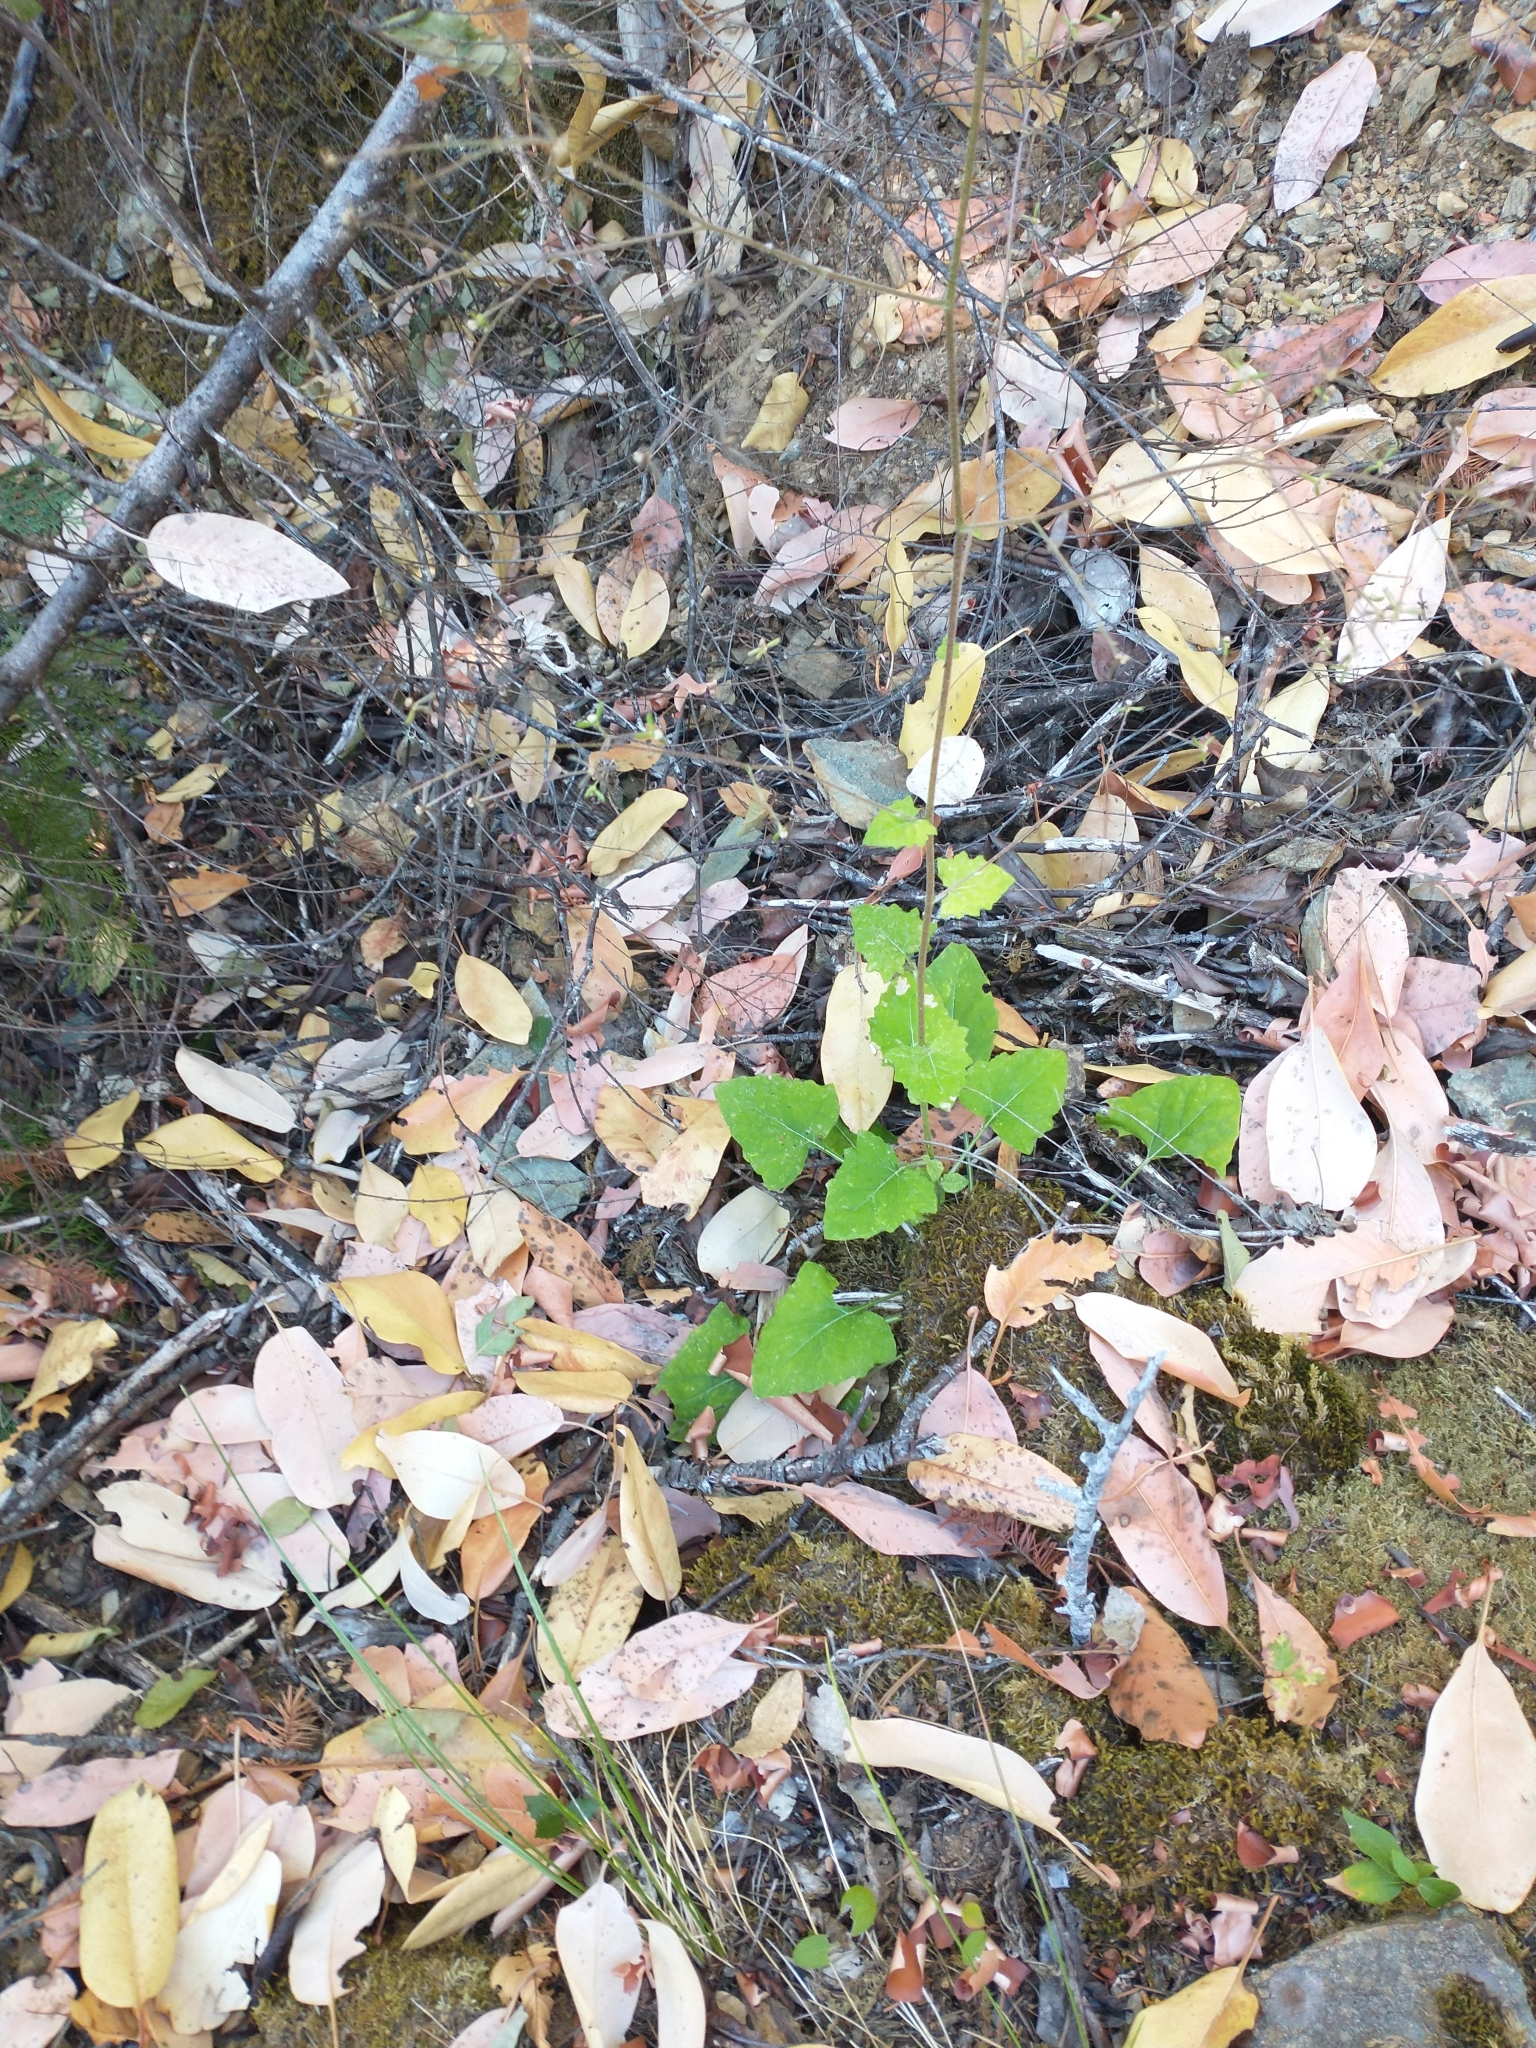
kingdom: Plantae
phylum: Tracheophyta
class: Magnoliopsida
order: Asterales
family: Asteraceae
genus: Adenocaulon
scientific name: Adenocaulon bicolor
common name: Trailplant
